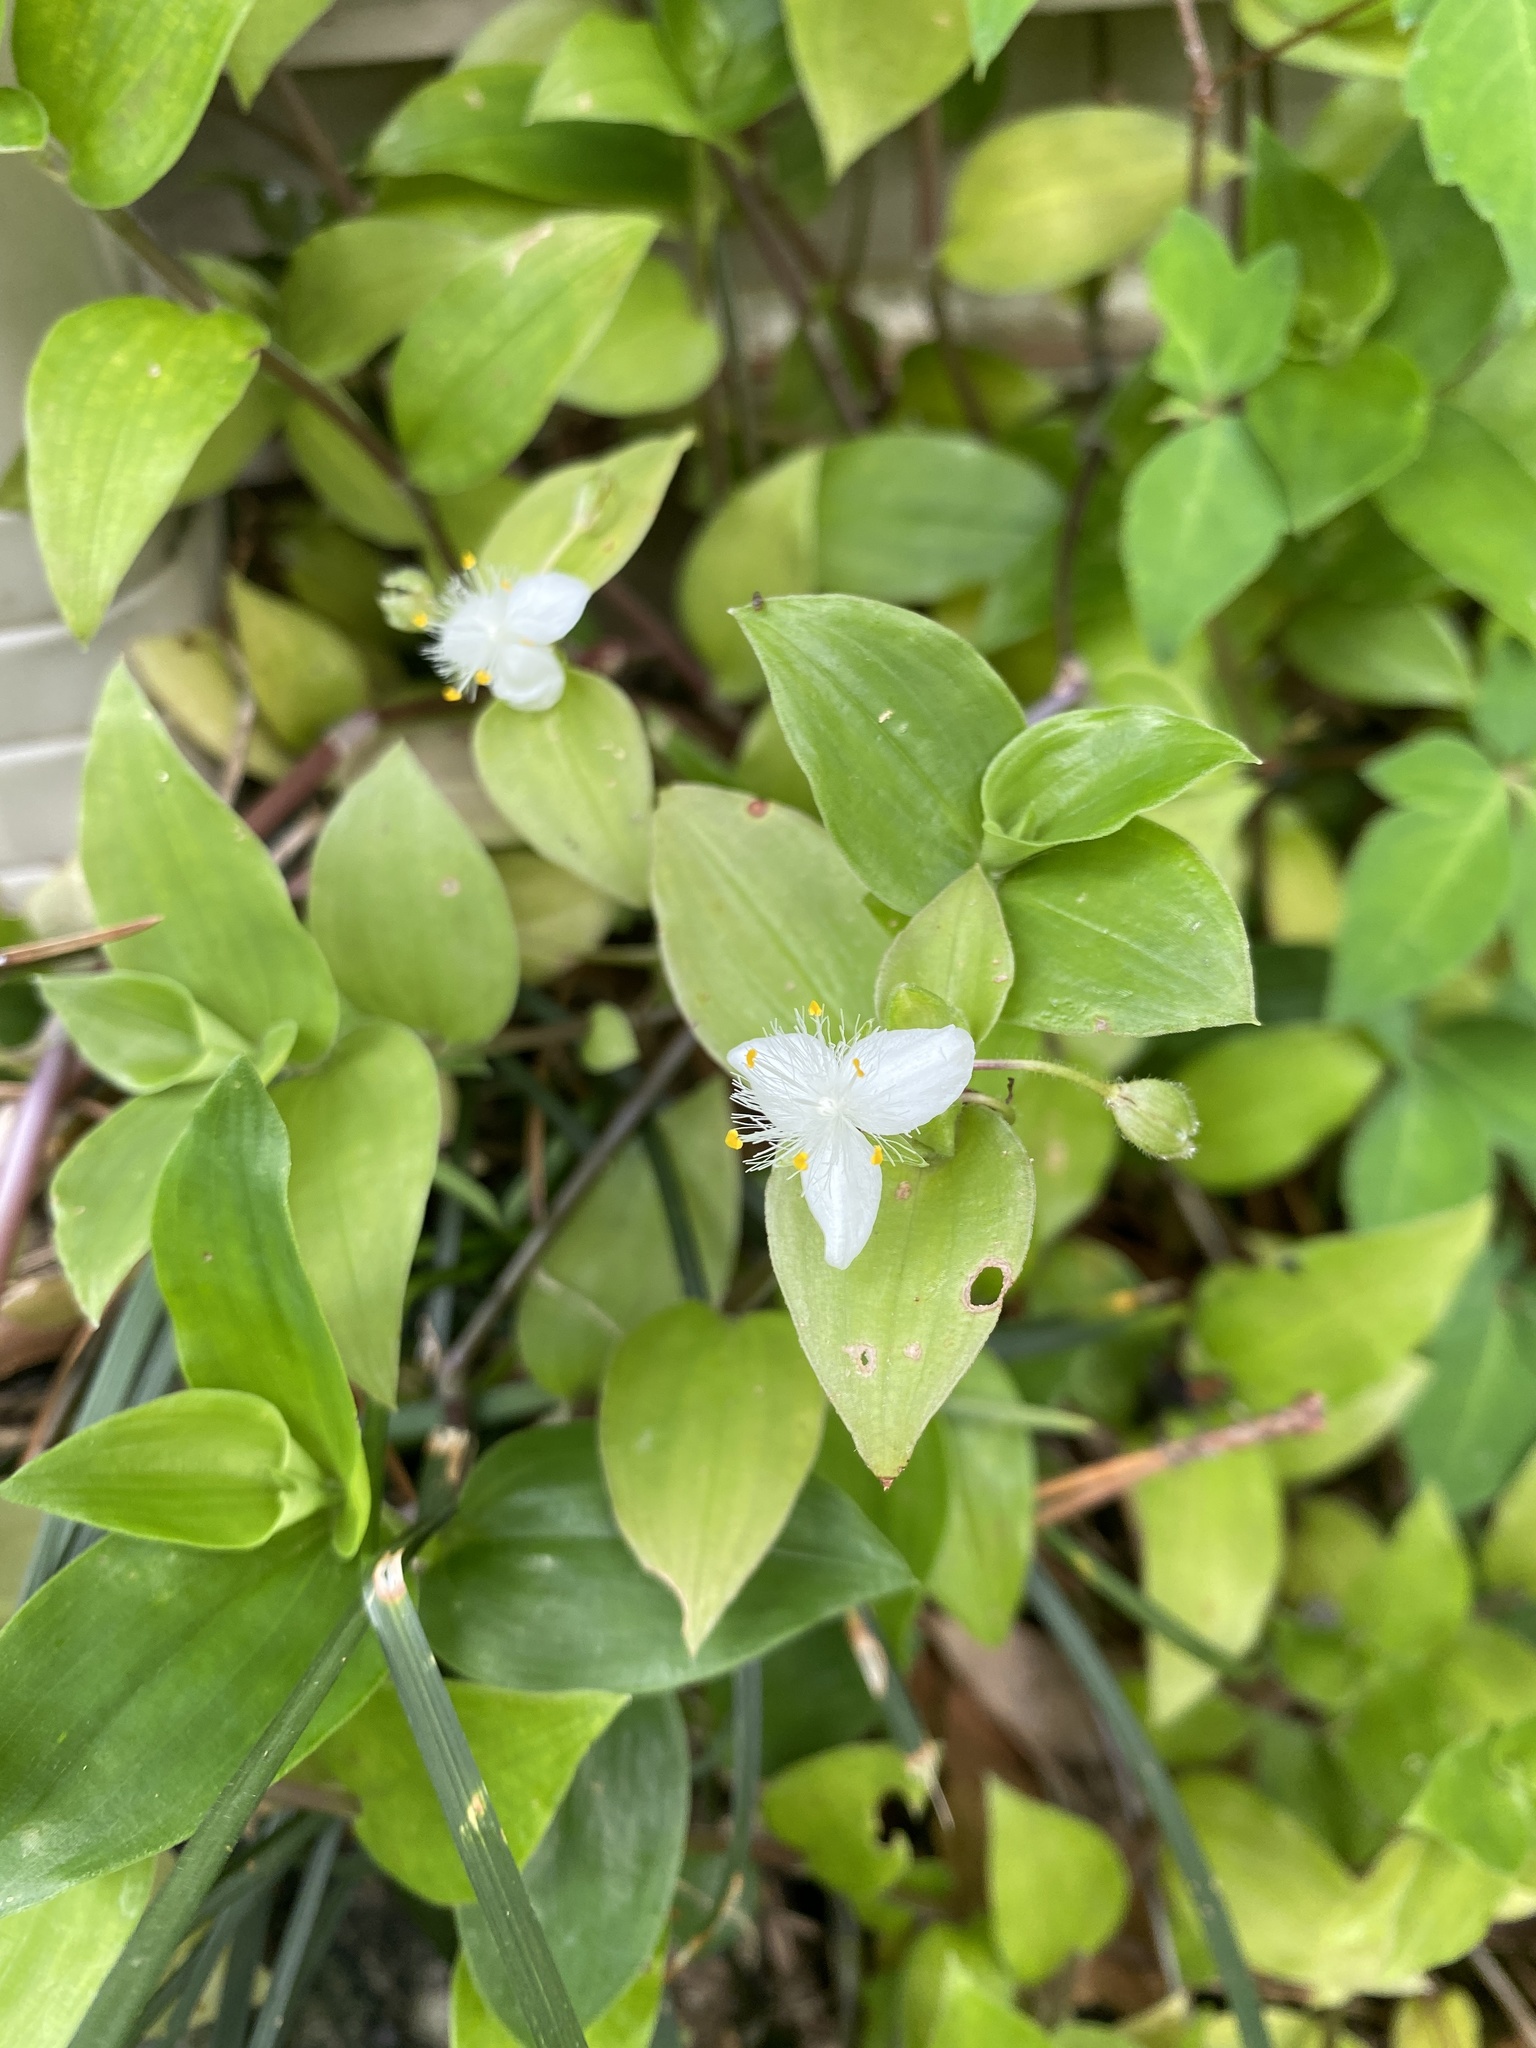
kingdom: Plantae
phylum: Tracheophyta
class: Liliopsida
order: Commelinales
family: Commelinaceae
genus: Tradescantia
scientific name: Tradescantia fluminensis
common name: Wandering-jew
